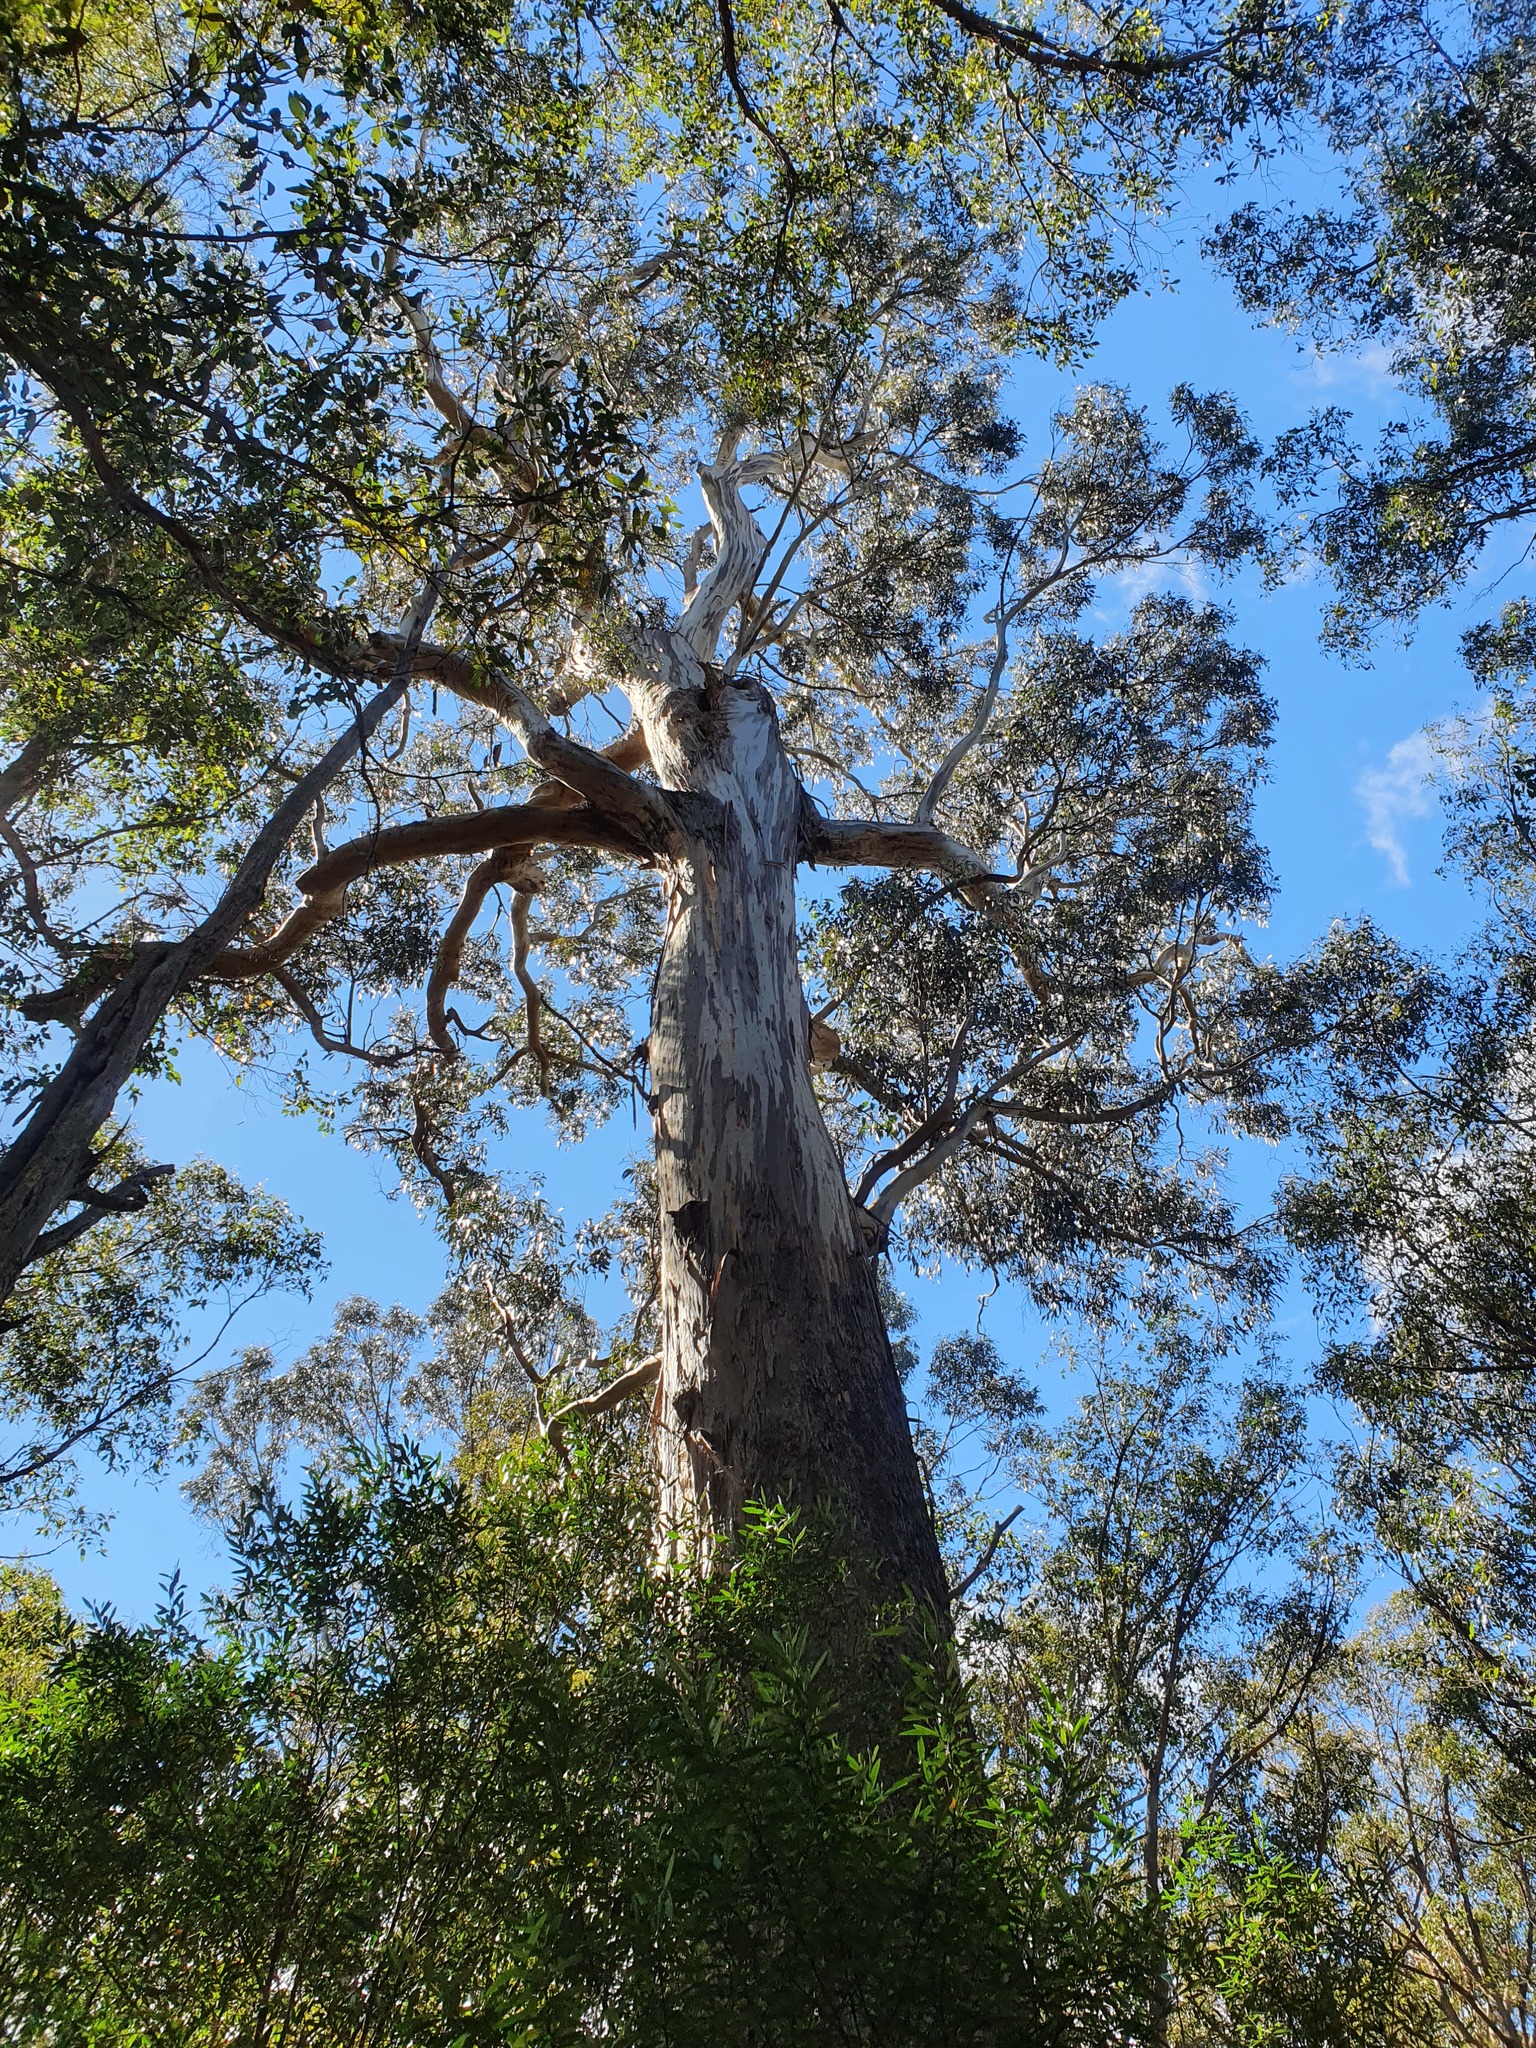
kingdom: Plantae
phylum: Tracheophyta
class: Magnoliopsida
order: Myrtales
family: Myrtaceae
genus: Eucalyptus
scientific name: Eucalyptus globulus
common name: Southern blue-gum
